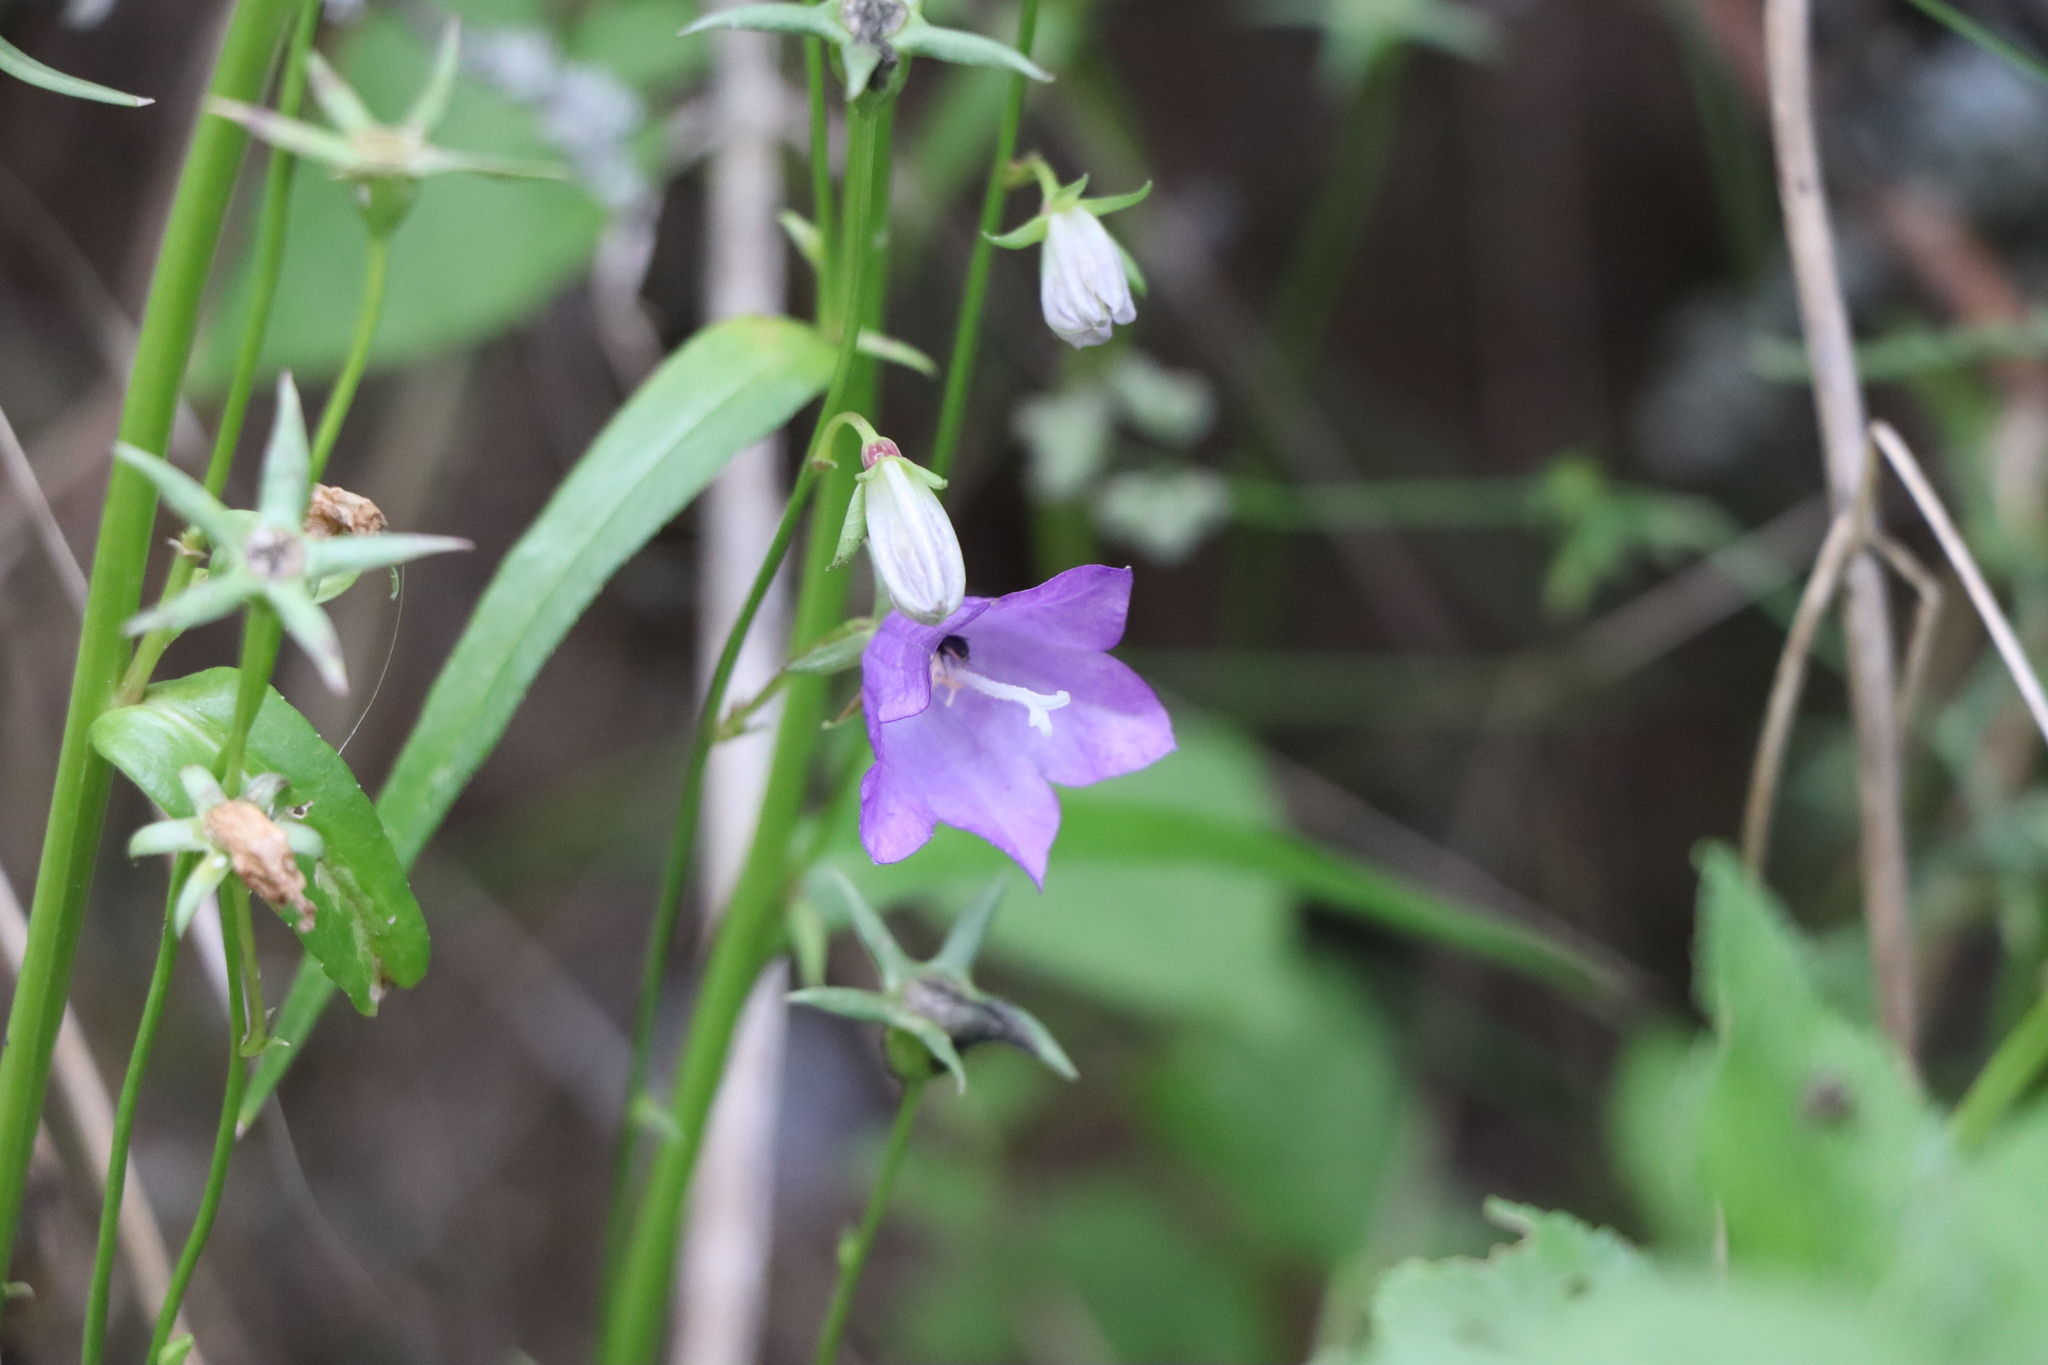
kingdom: Plantae
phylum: Tracheophyta
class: Magnoliopsida
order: Asterales
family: Campanulaceae
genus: Campanula
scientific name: Campanula persicifolia
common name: Peach-leaved bellflower
